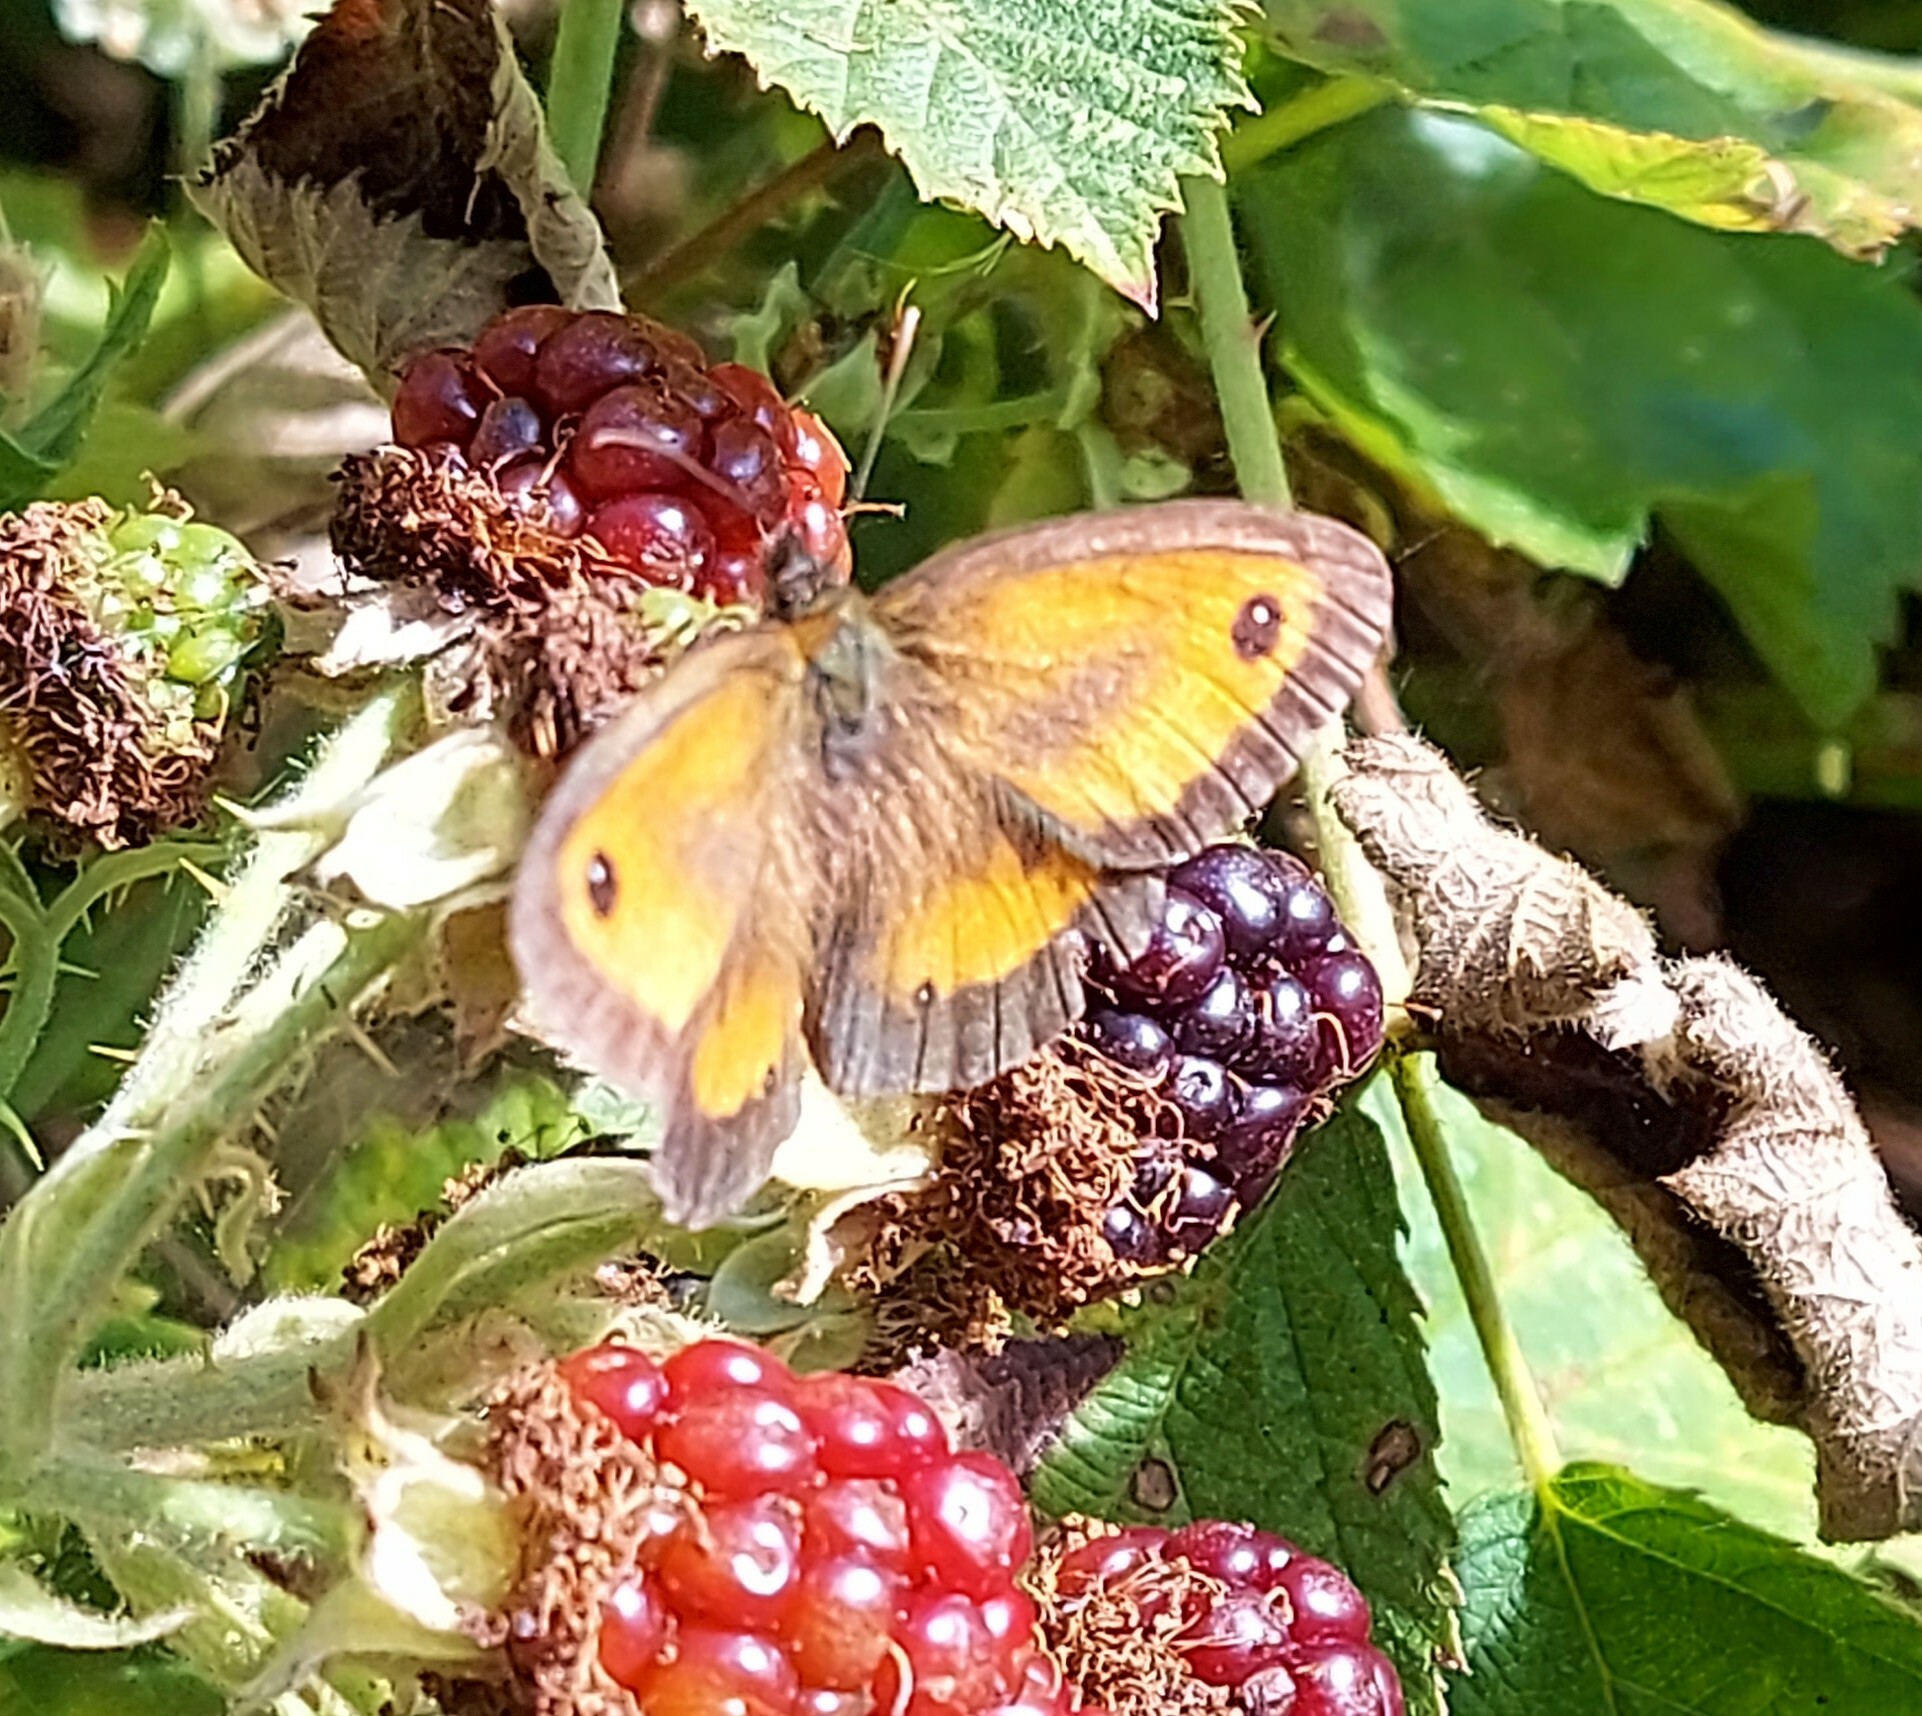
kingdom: Animalia
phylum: Arthropoda
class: Insecta
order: Lepidoptera
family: Nymphalidae
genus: Pyronia
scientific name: Pyronia tithonus
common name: Gatekeeper
